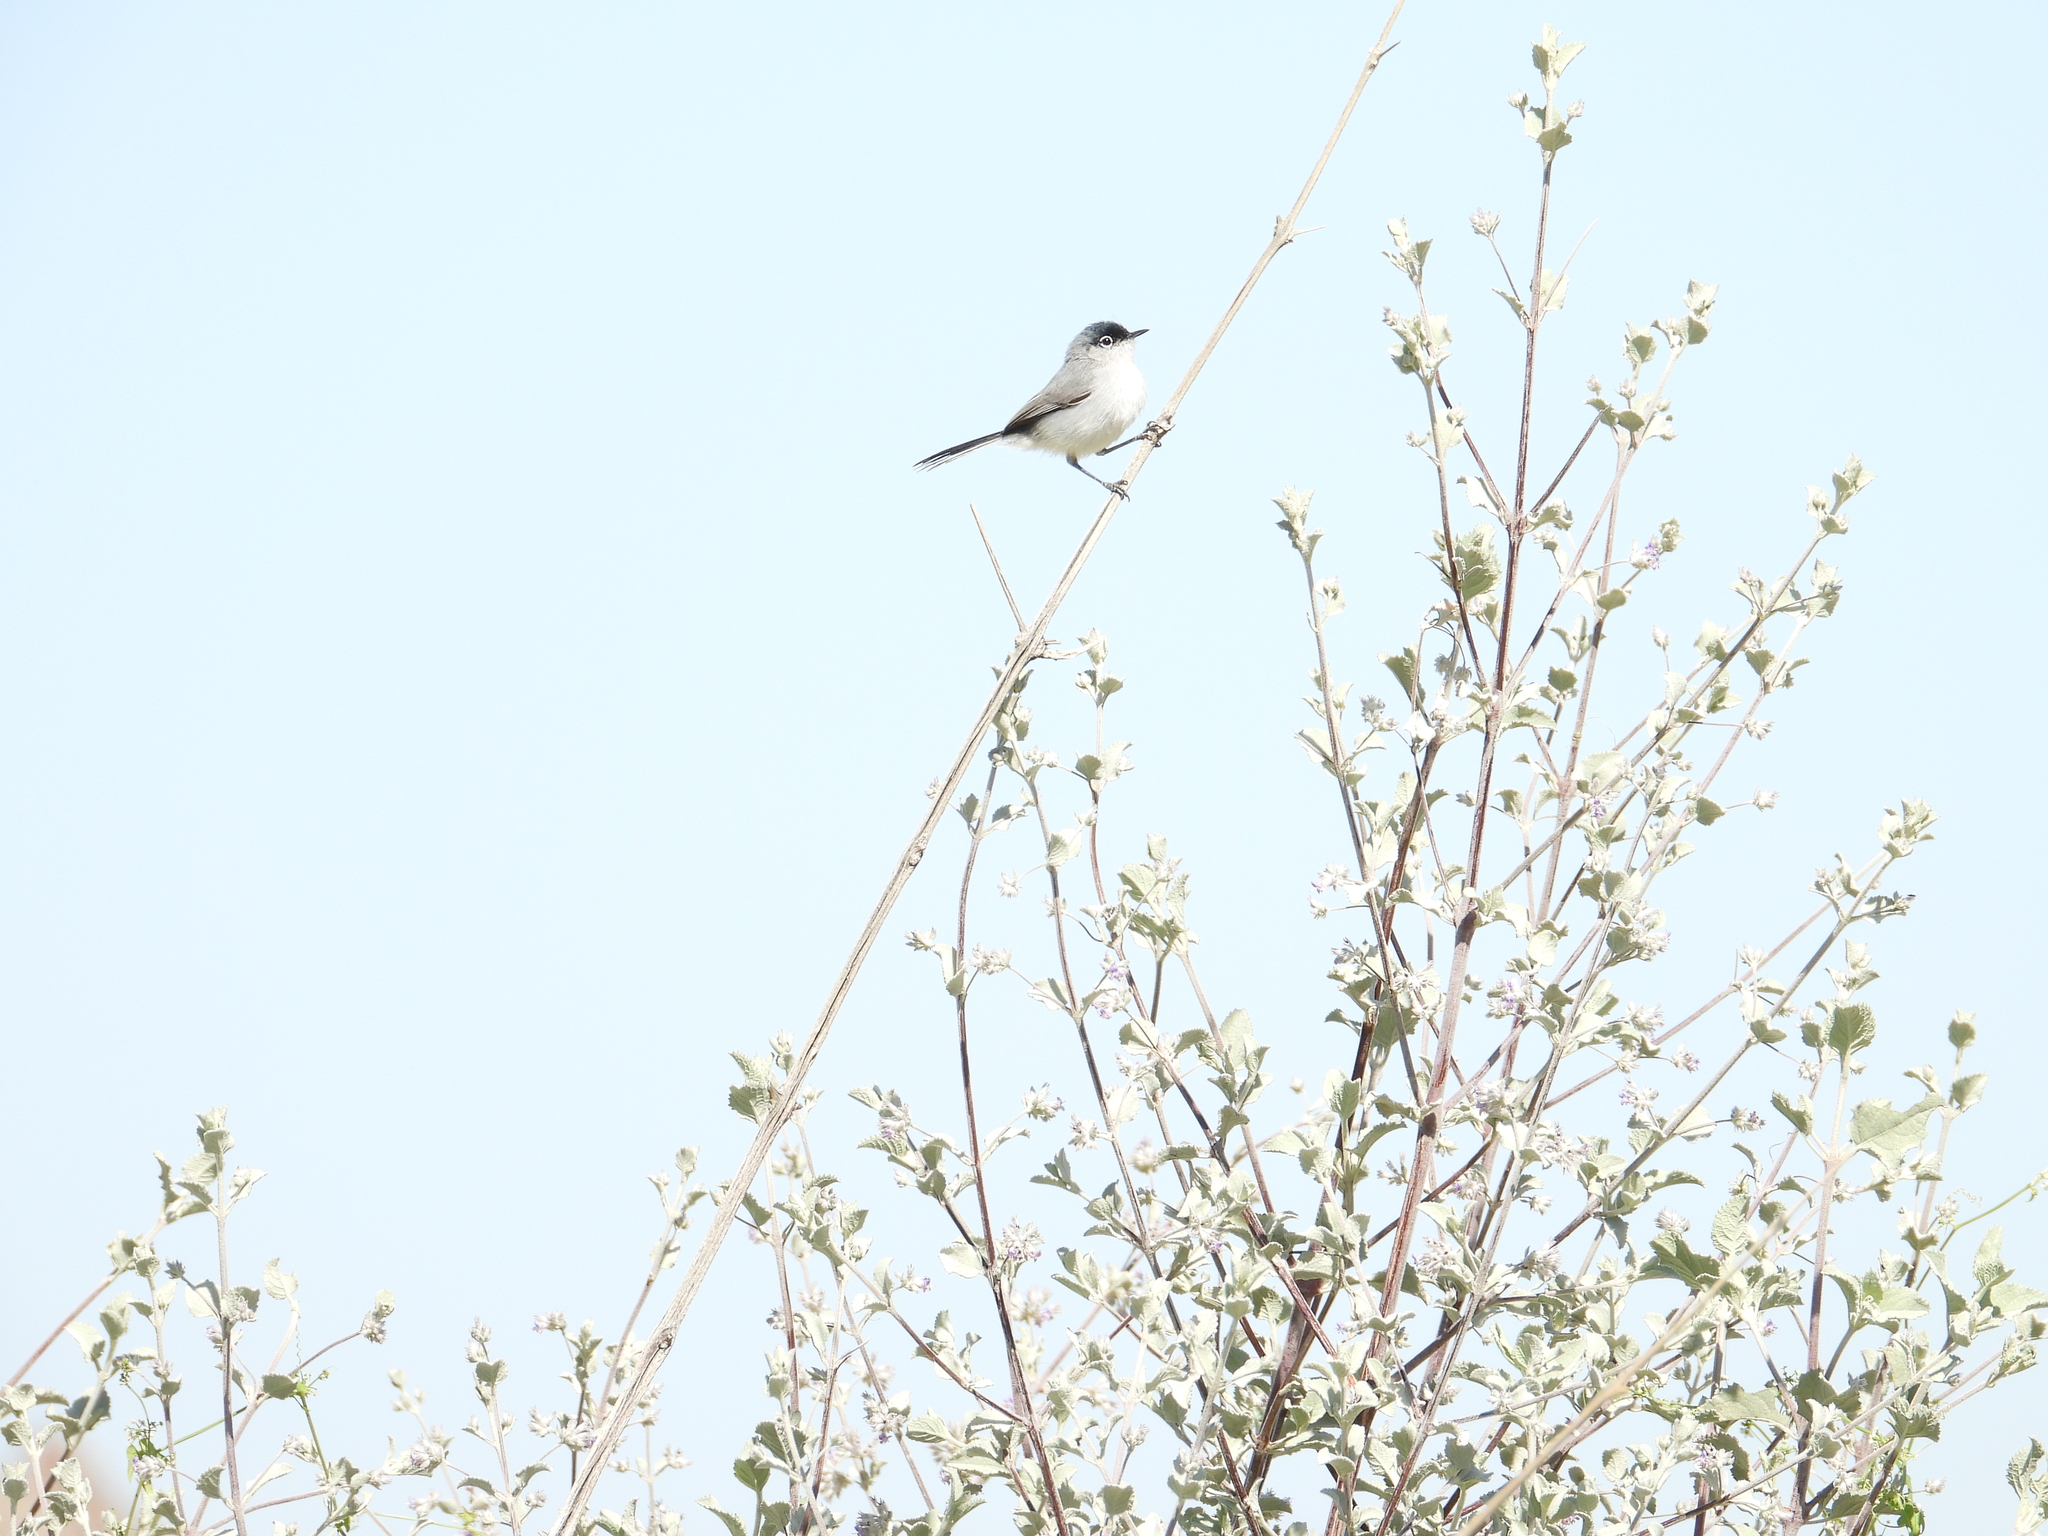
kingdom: Animalia
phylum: Chordata
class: Aves
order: Passeriformes
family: Polioptilidae
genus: Polioptila
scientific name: Polioptila melanura
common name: Black-tailed gnatcatcher
